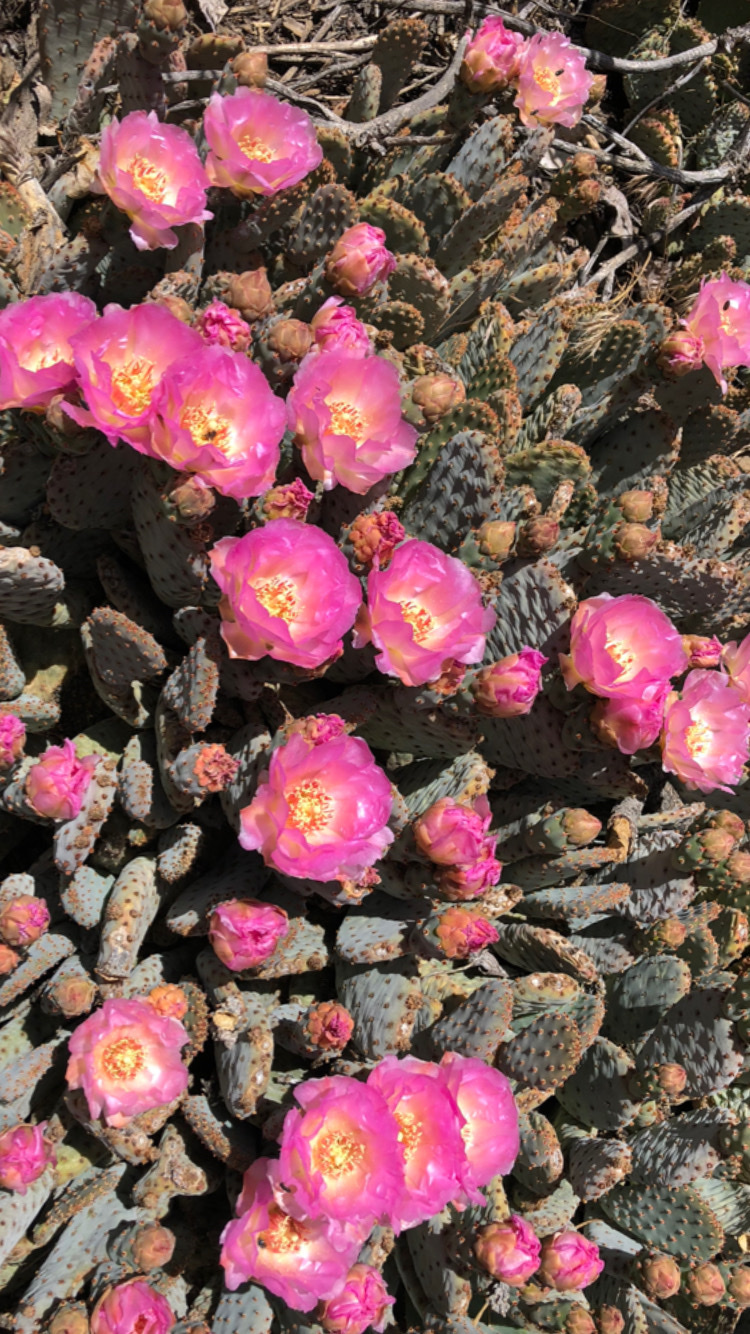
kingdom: Plantae
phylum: Tracheophyta
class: Magnoliopsida
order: Caryophyllales
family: Cactaceae
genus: Opuntia
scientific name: Opuntia basilaris
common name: Beavertail prickly-pear
